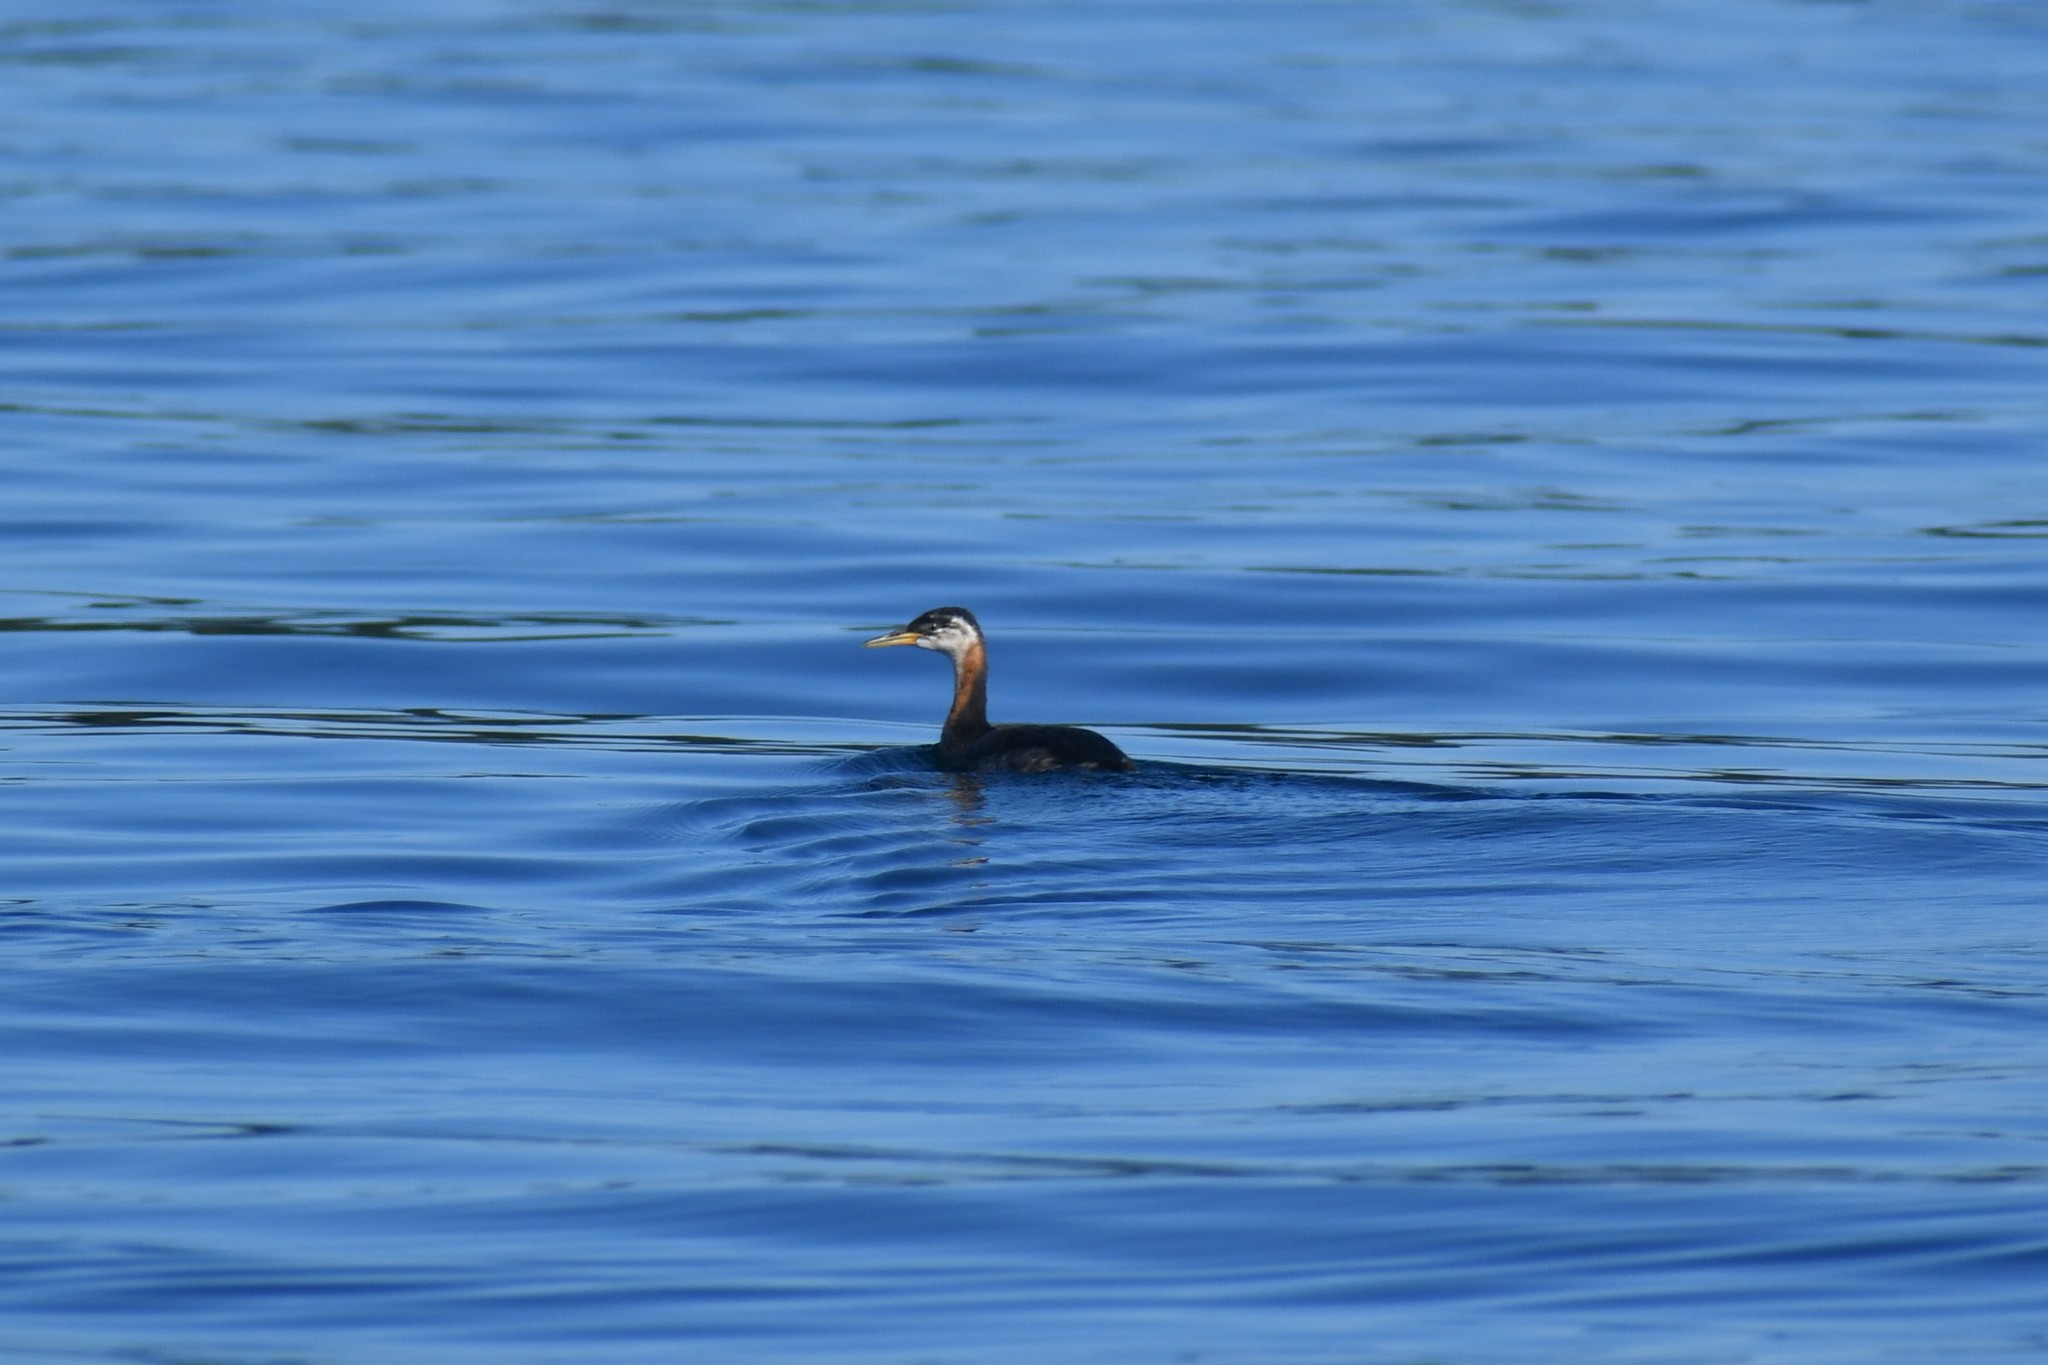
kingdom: Animalia
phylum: Chordata
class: Aves
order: Podicipediformes
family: Podicipedidae
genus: Podiceps
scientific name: Podiceps grisegena
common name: Red-necked grebe
